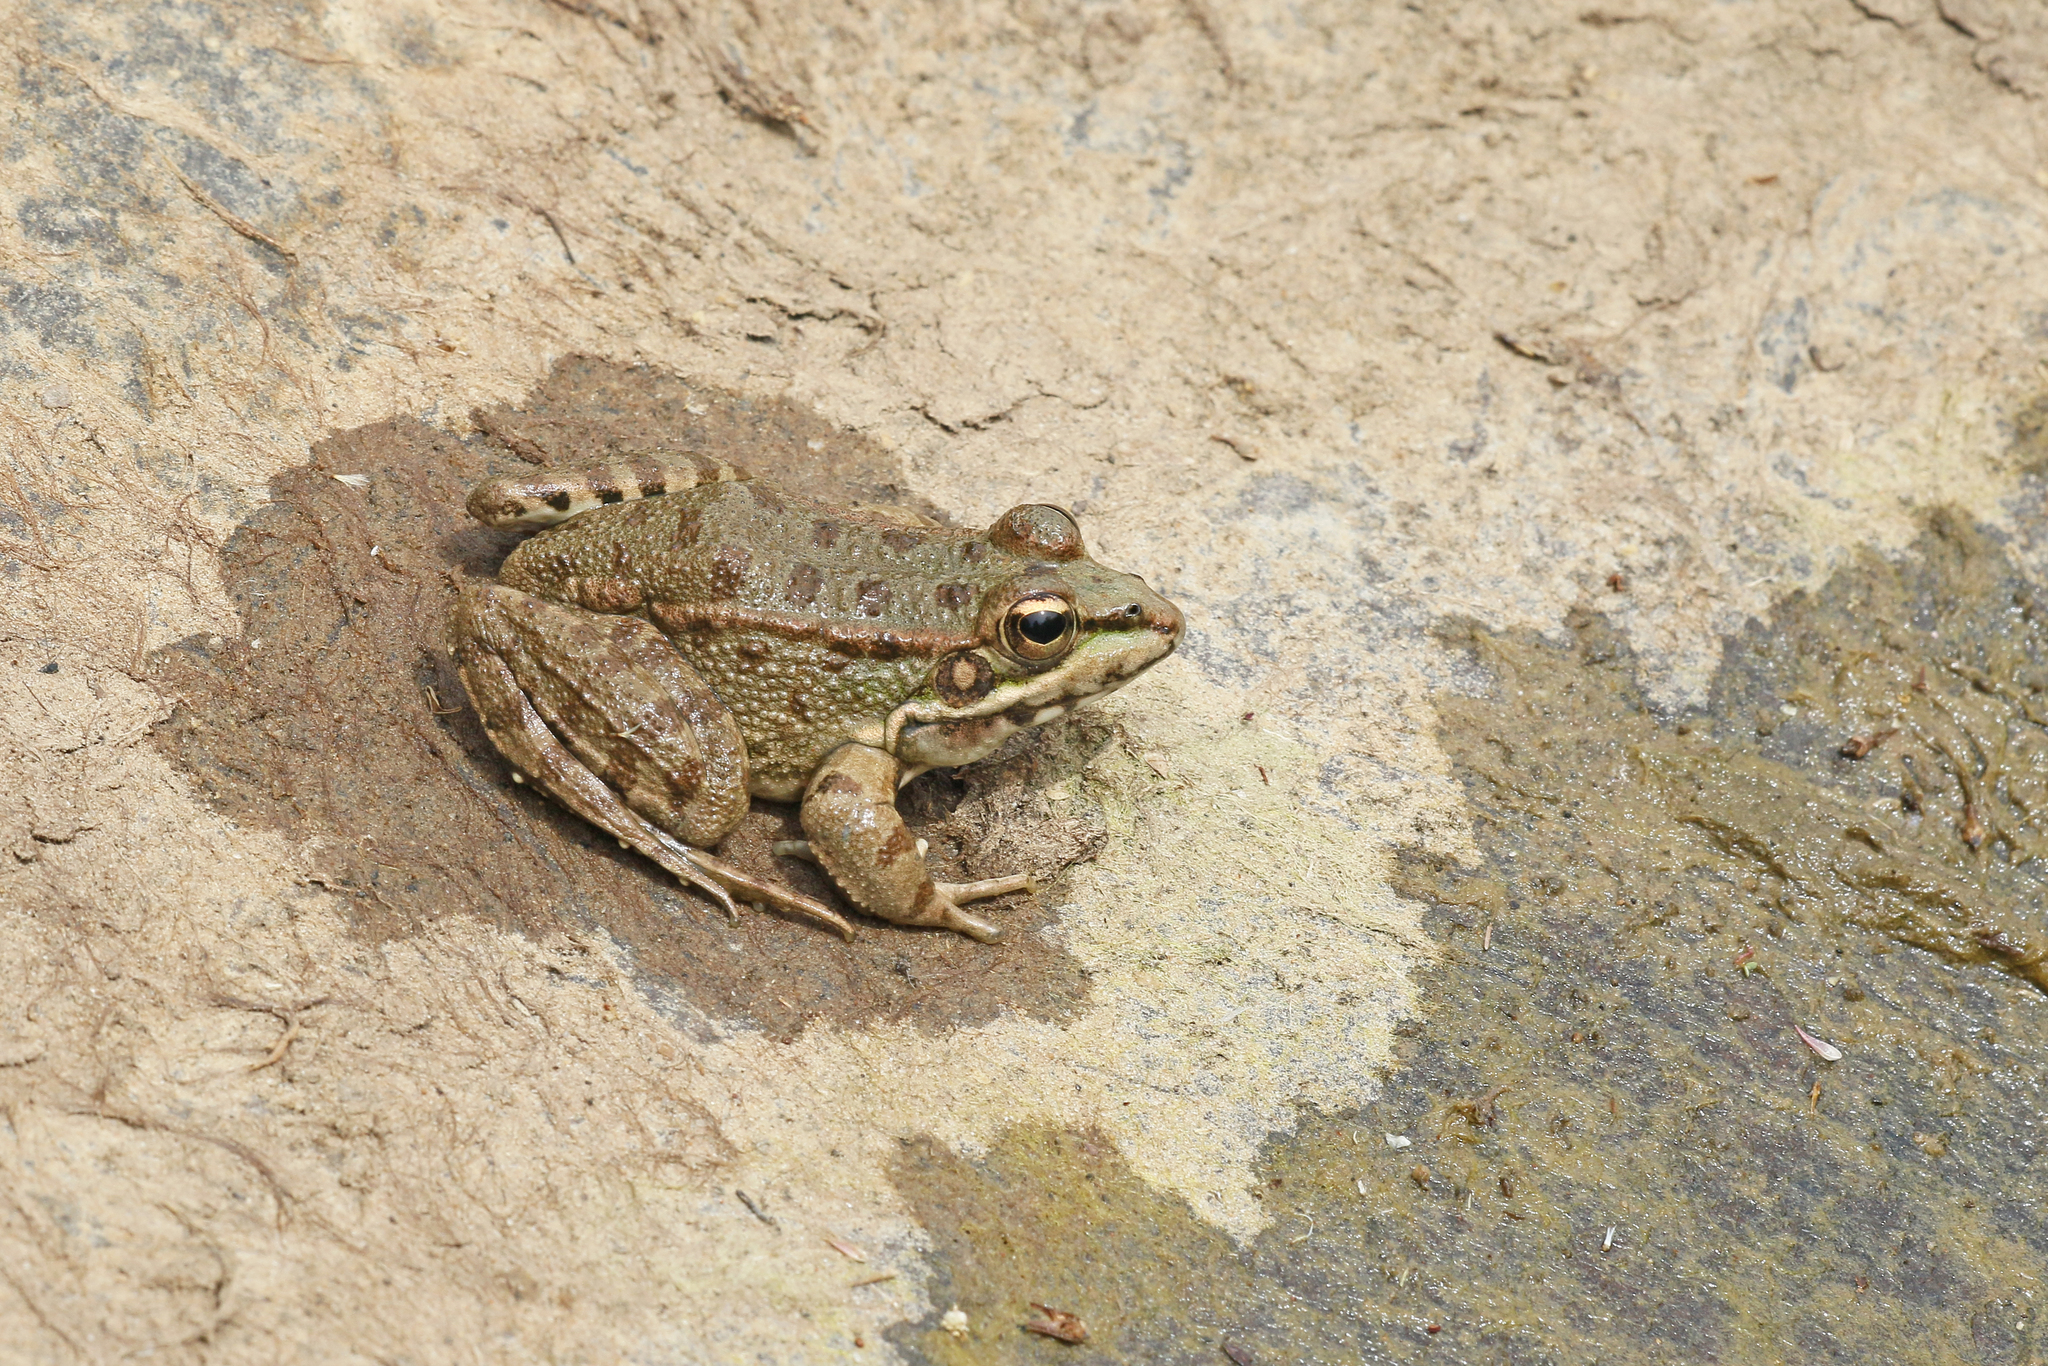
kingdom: Animalia
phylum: Chordata
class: Amphibia
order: Anura
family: Ranidae
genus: Pelophylax
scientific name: Pelophylax perezi
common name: Perez's frog
